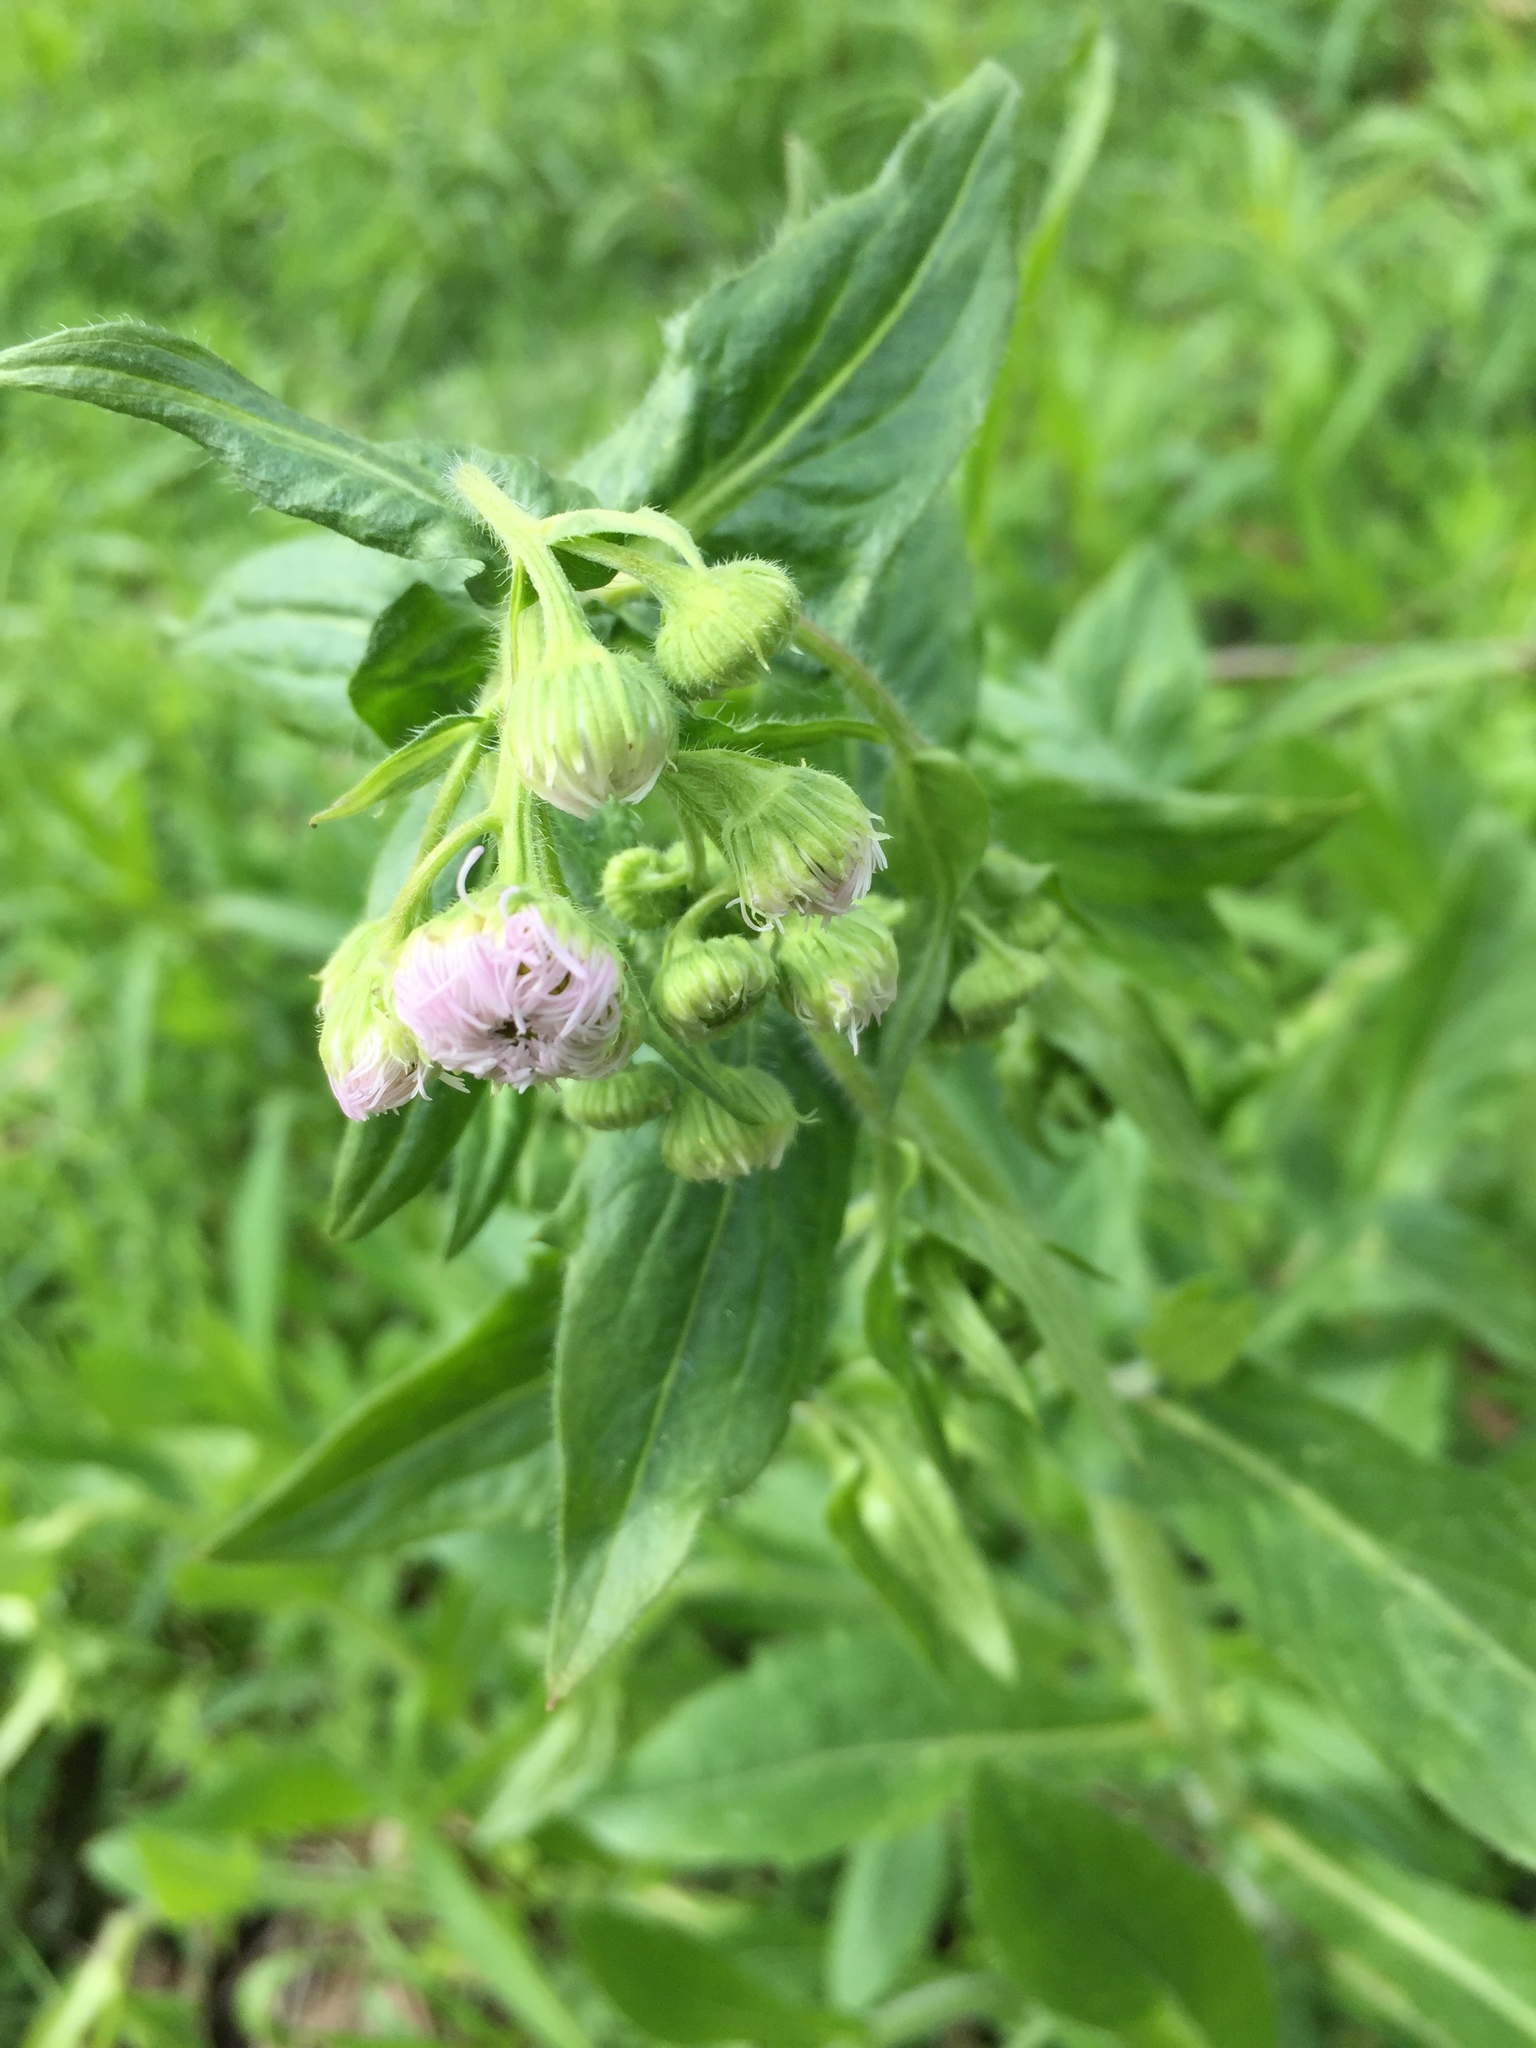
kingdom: Plantae
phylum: Tracheophyta
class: Magnoliopsida
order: Asterales
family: Asteraceae
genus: Erigeron
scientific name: Erigeron philadelphicus
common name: Robin's-plantain
